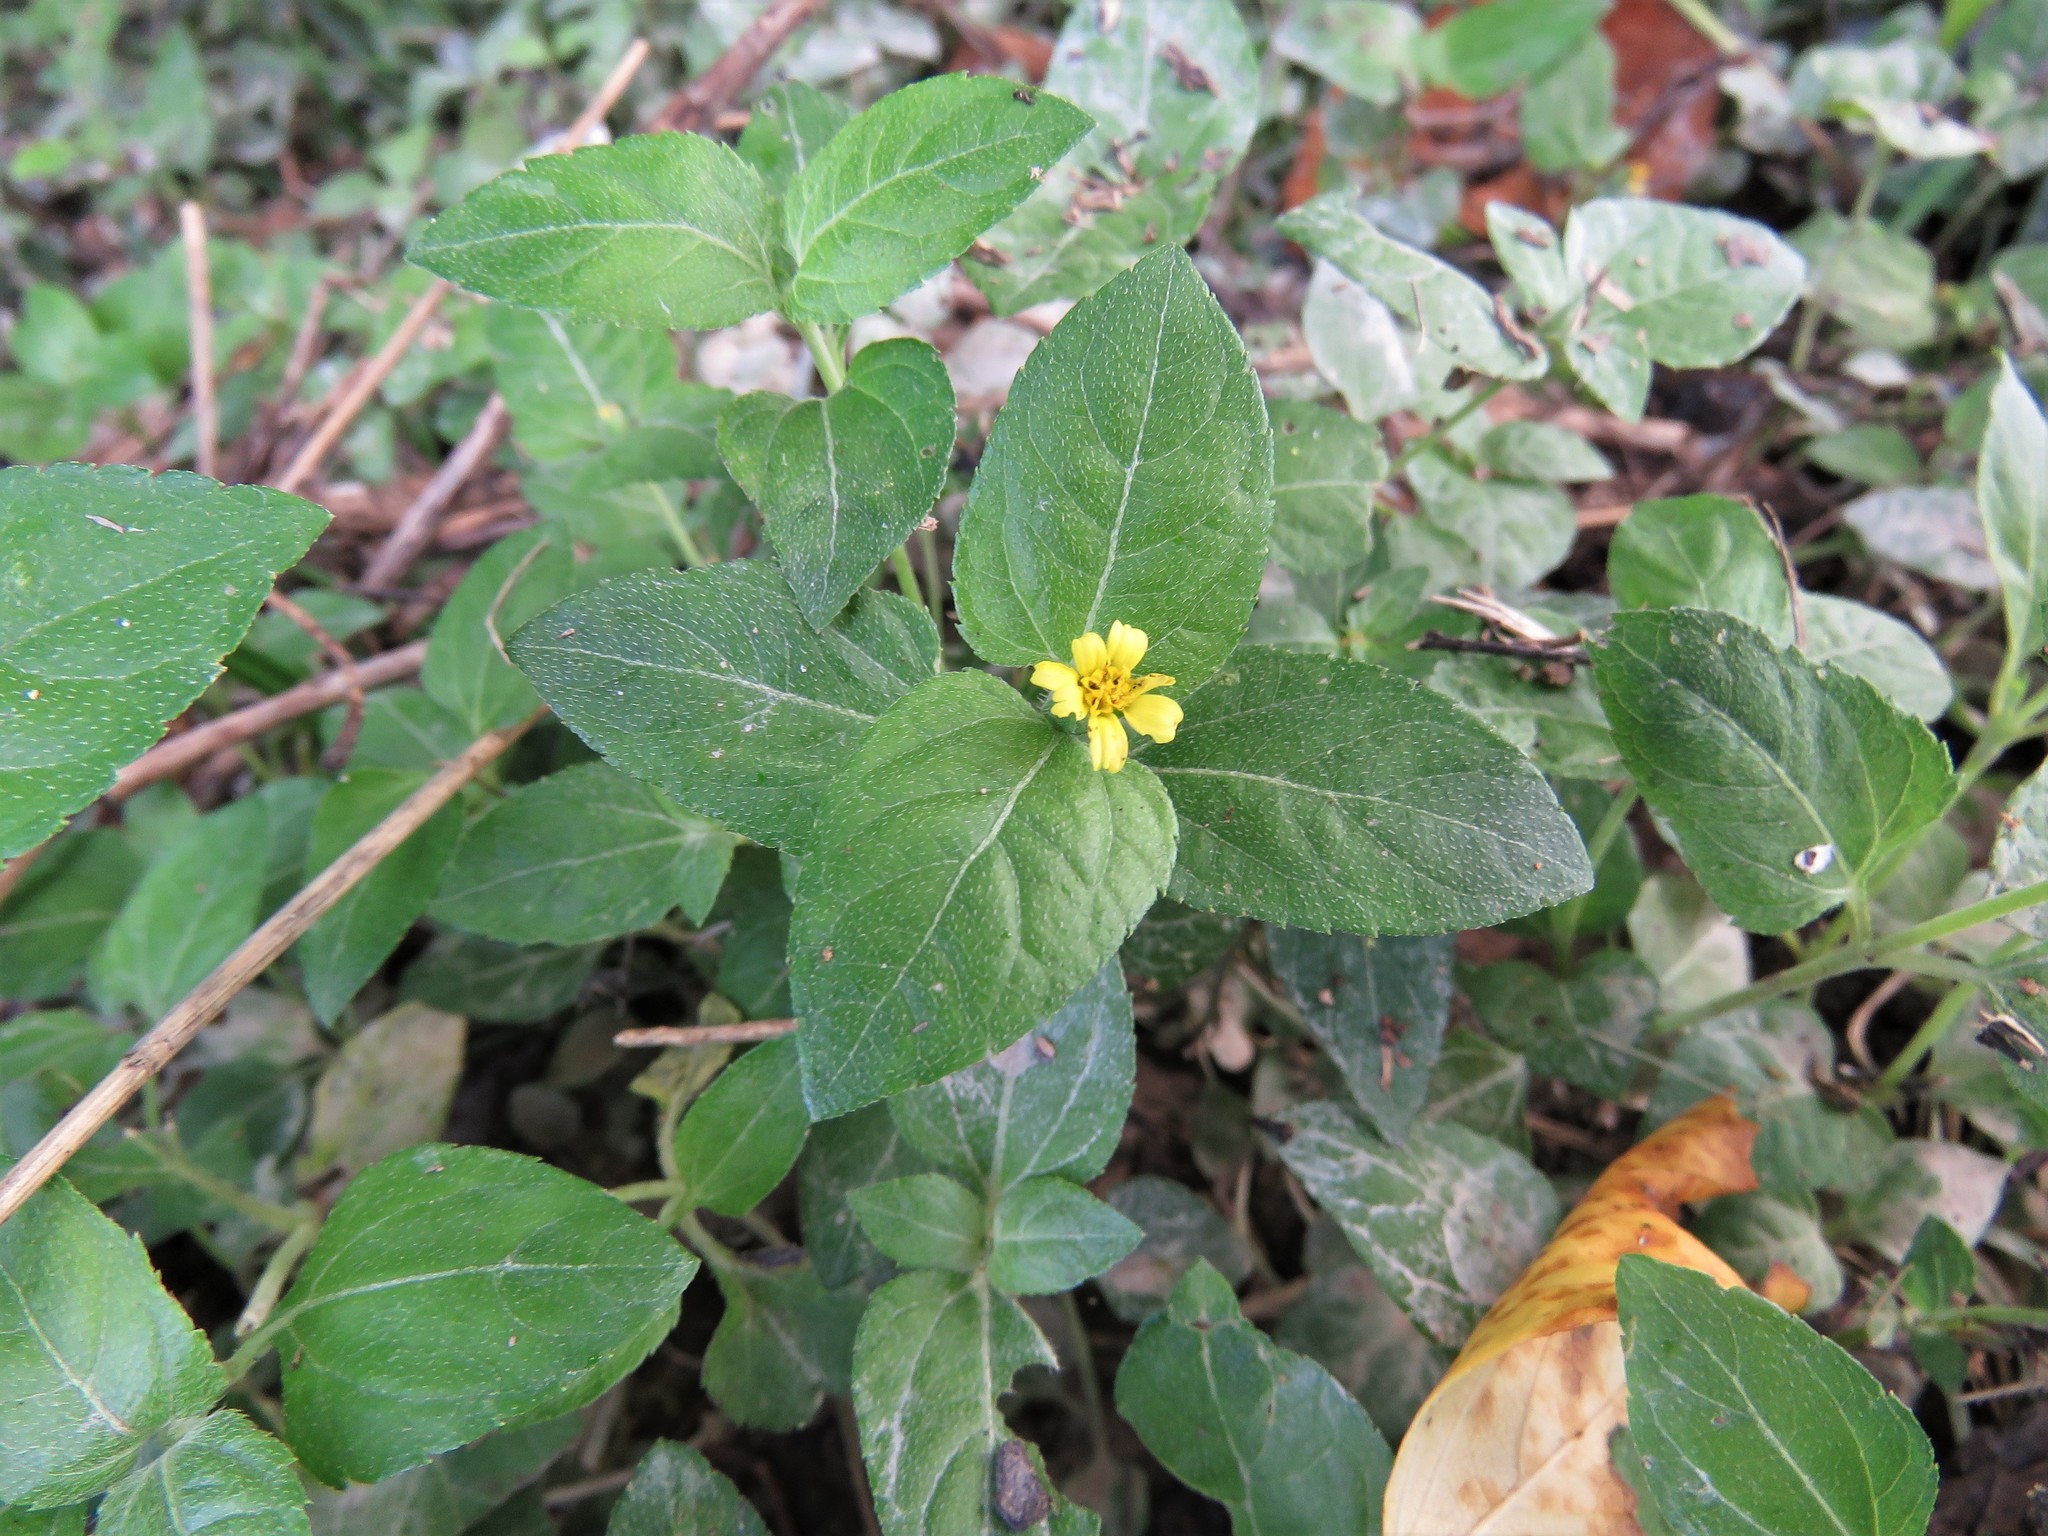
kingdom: Plantae
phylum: Tracheophyta
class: Magnoliopsida
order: Asterales
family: Asteraceae
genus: Calyptocarpus
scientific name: Calyptocarpus vialis
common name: Straggler daisy
